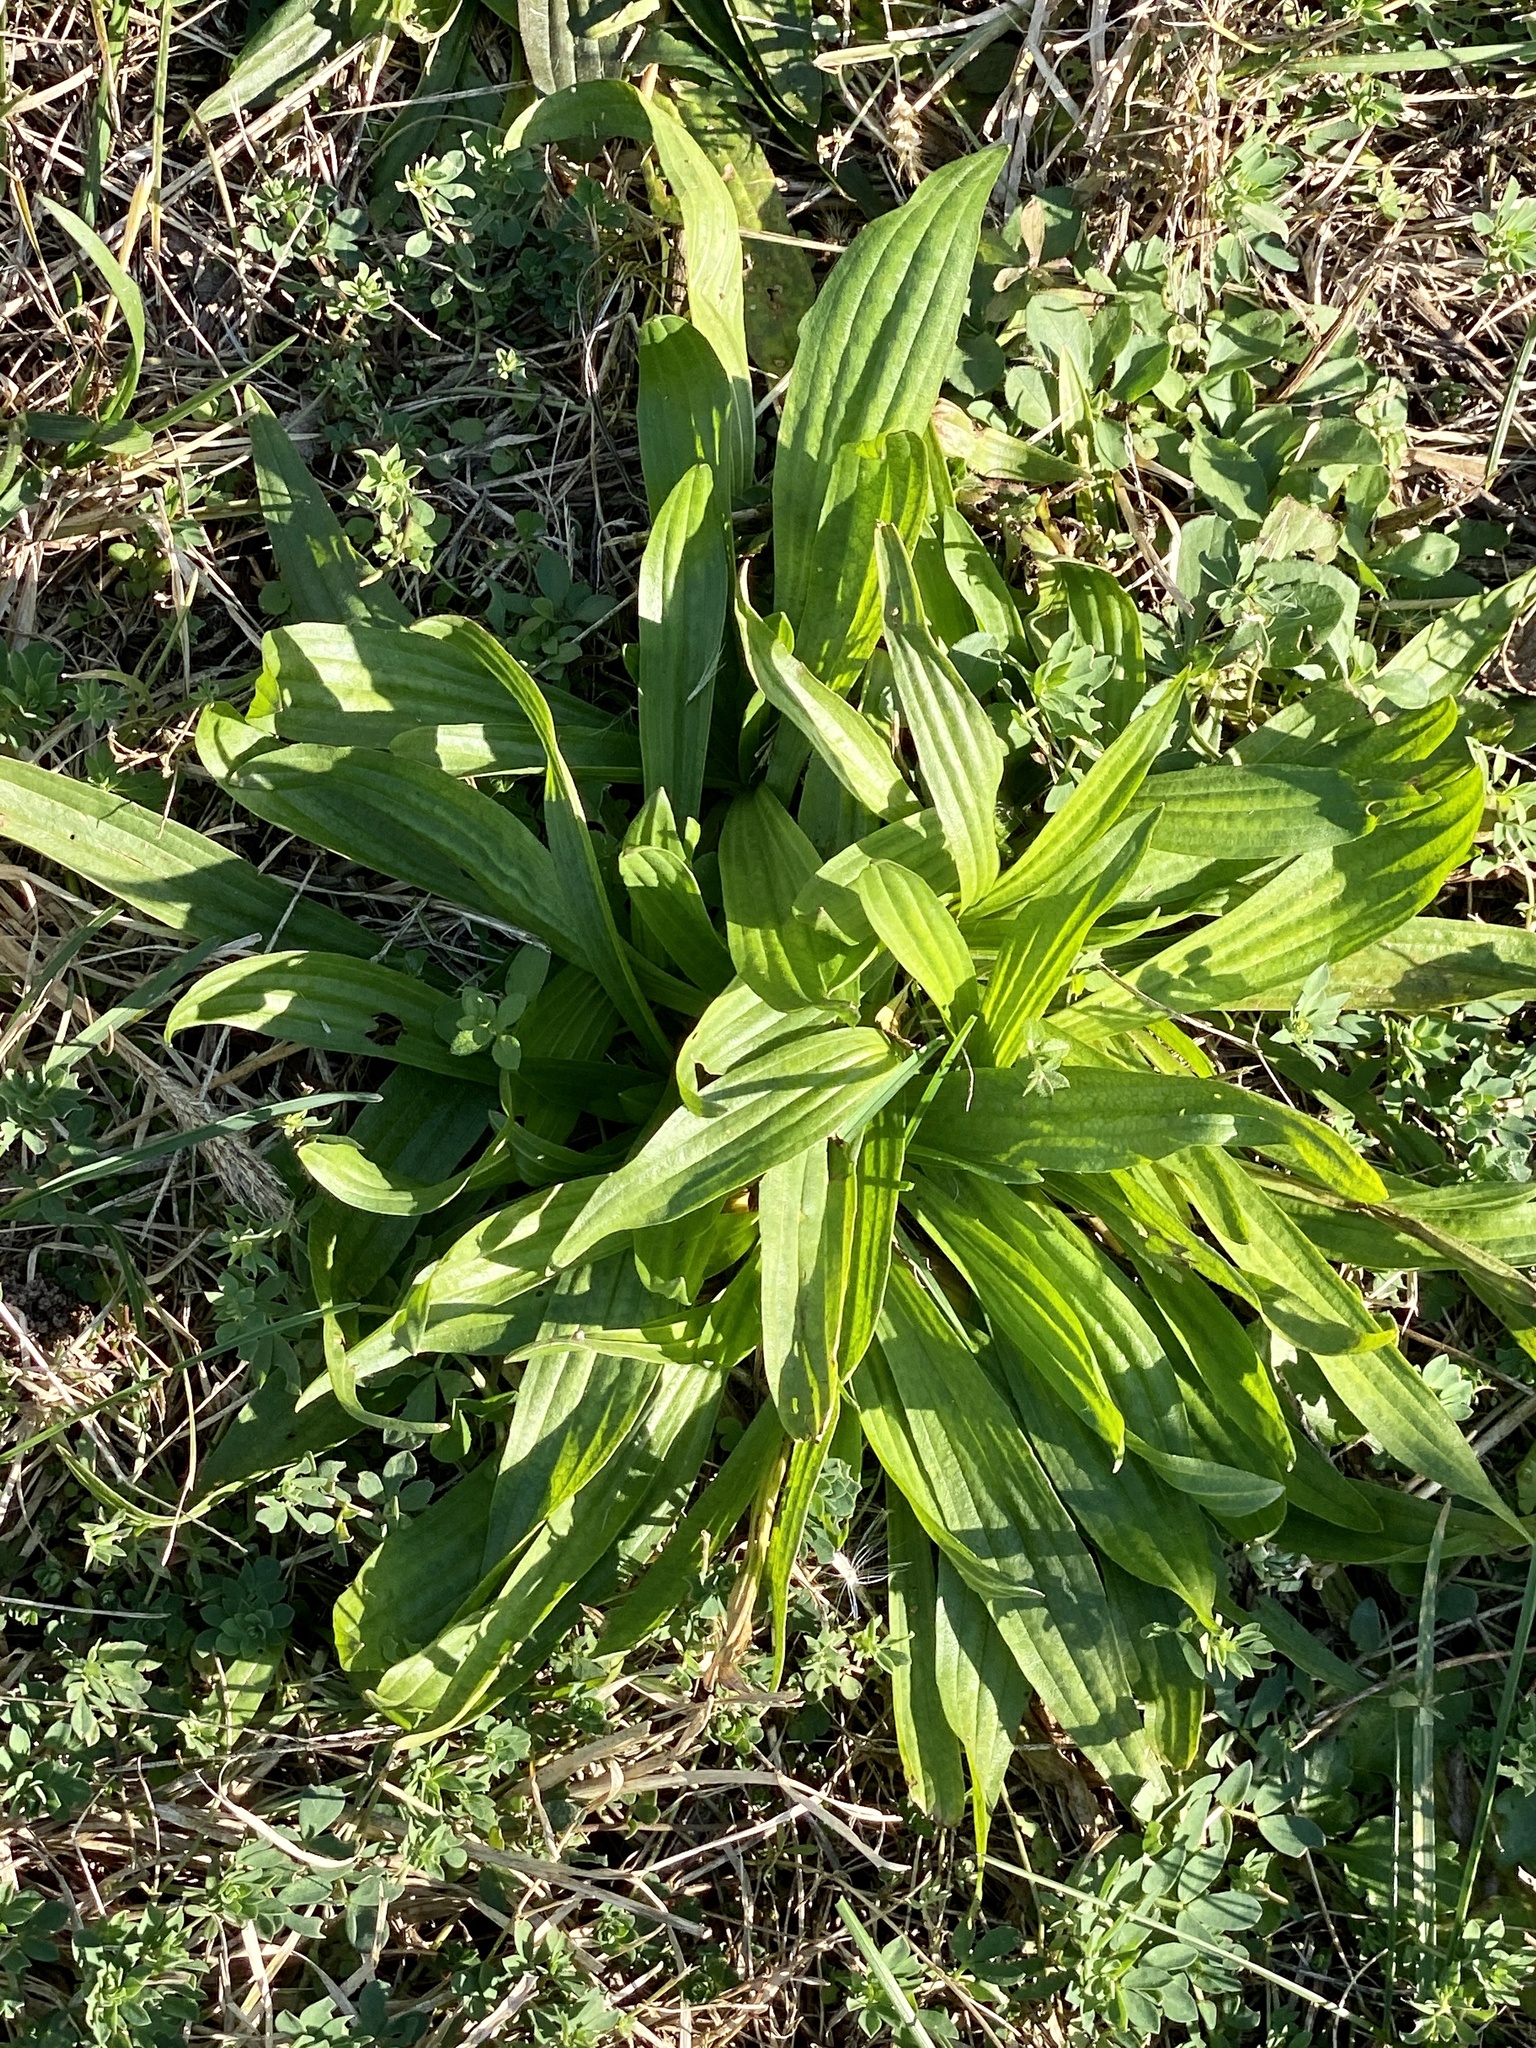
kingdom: Plantae
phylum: Tracheophyta
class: Magnoliopsida
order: Lamiales
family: Plantaginaceae
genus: Plantago
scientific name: Plantago lanceolata
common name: Ribwort plantain
